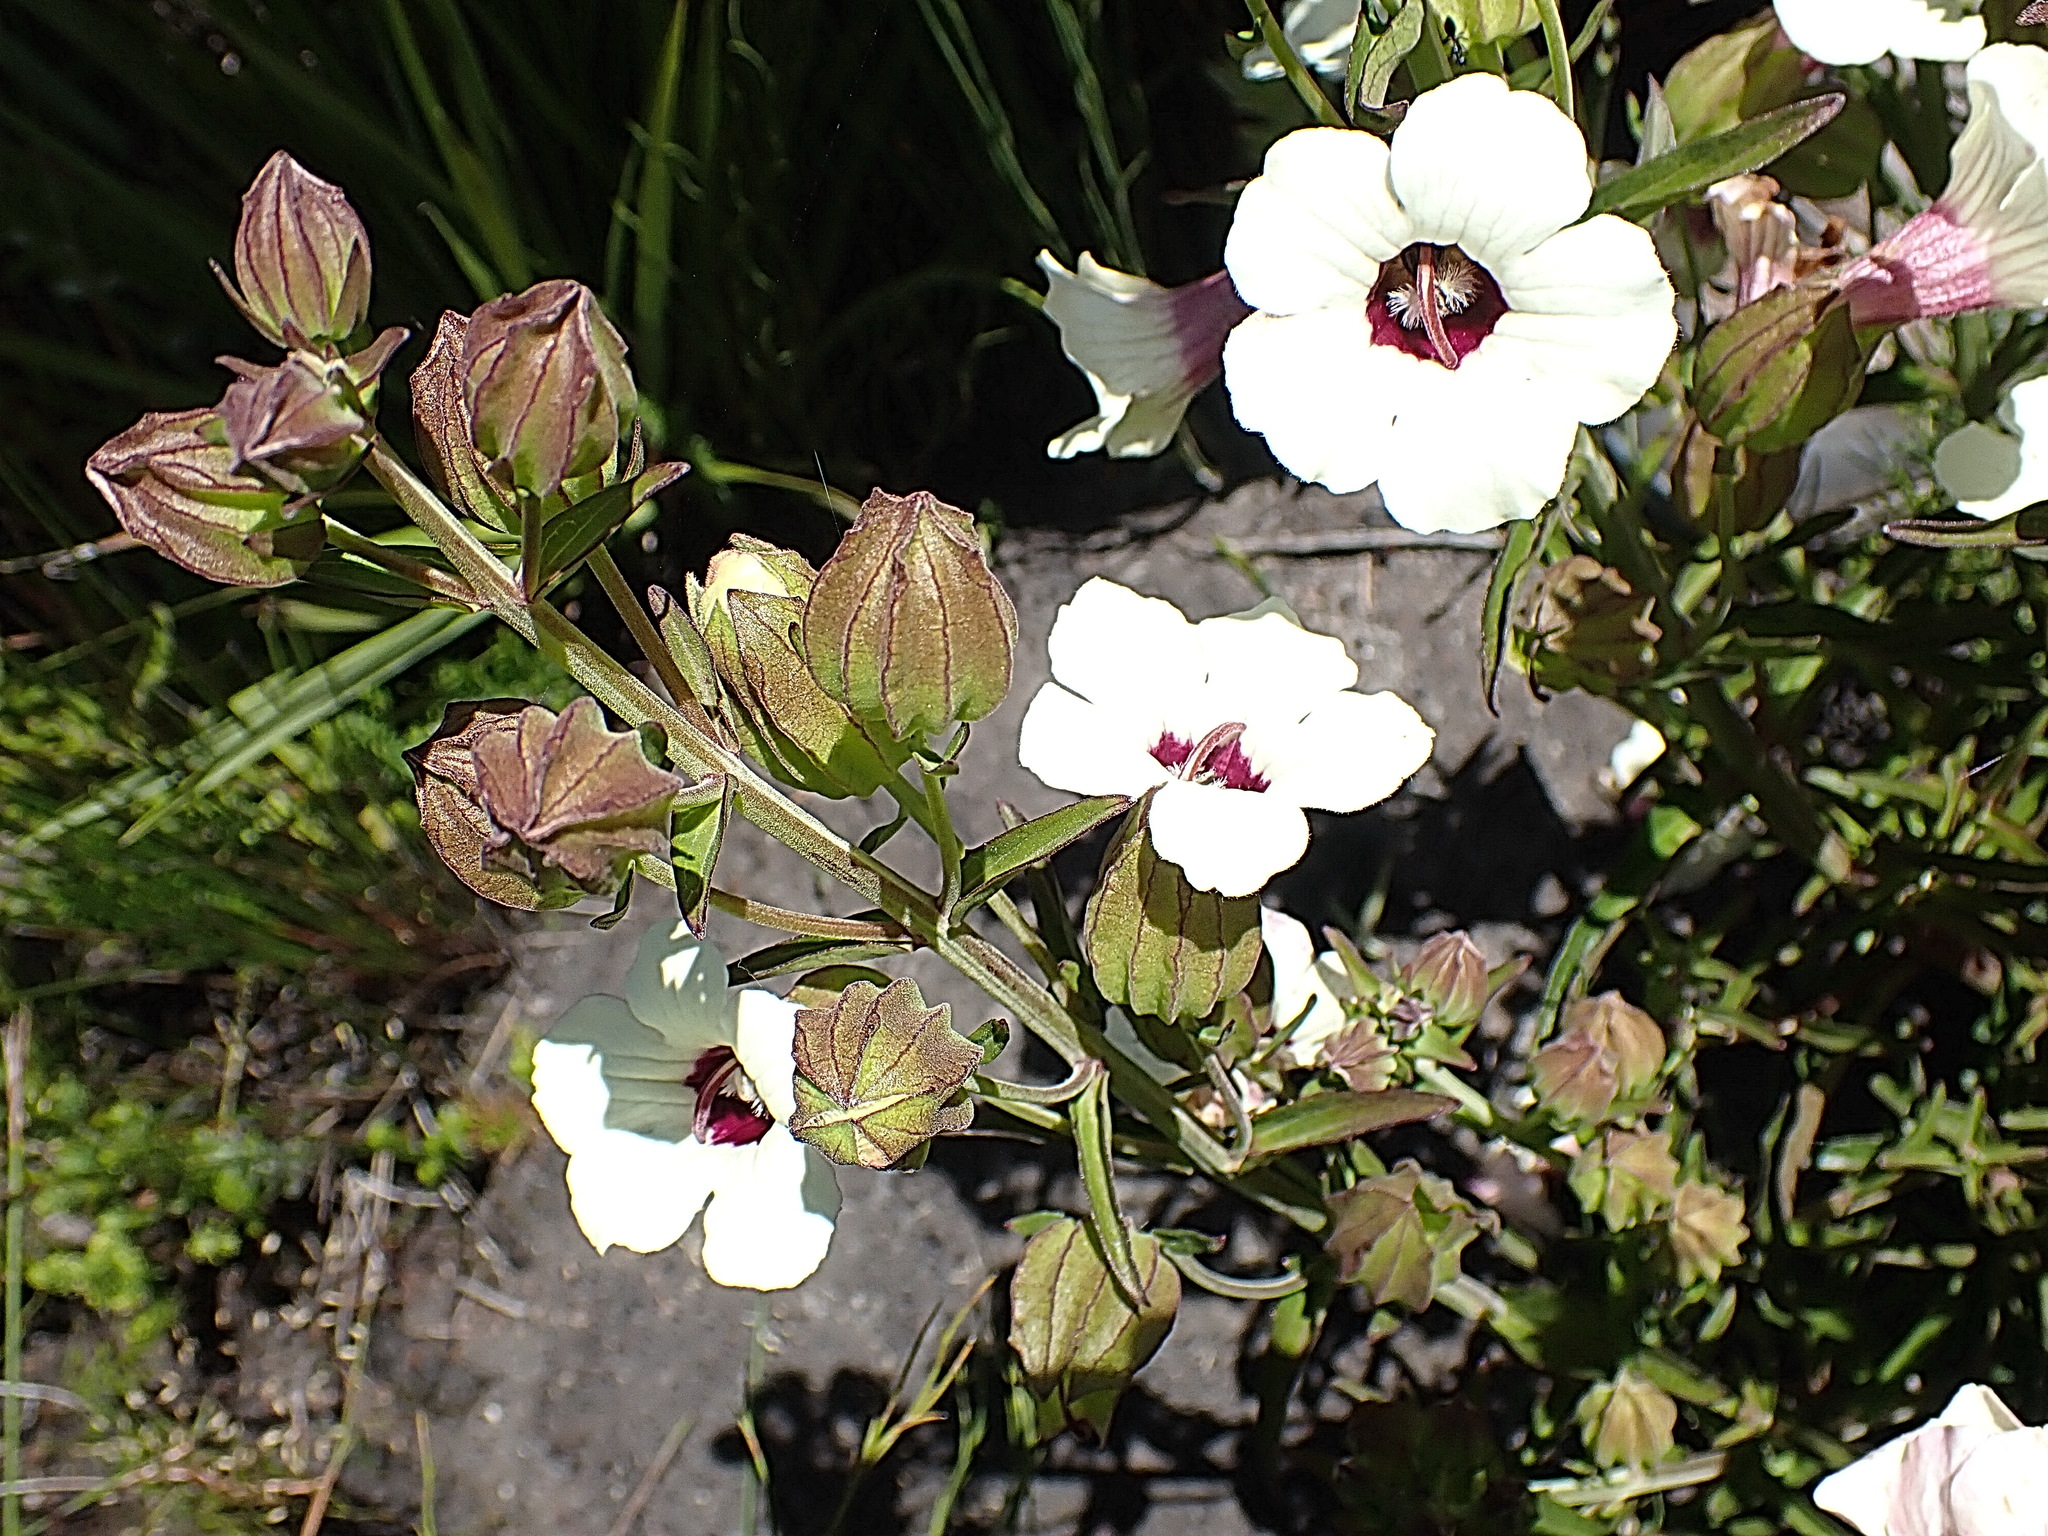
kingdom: Plantae
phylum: Tracheophyta
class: Magnoliopsida
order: Lamiales
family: Orobanchaceae
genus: Melasma
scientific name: Melasma scabrum
